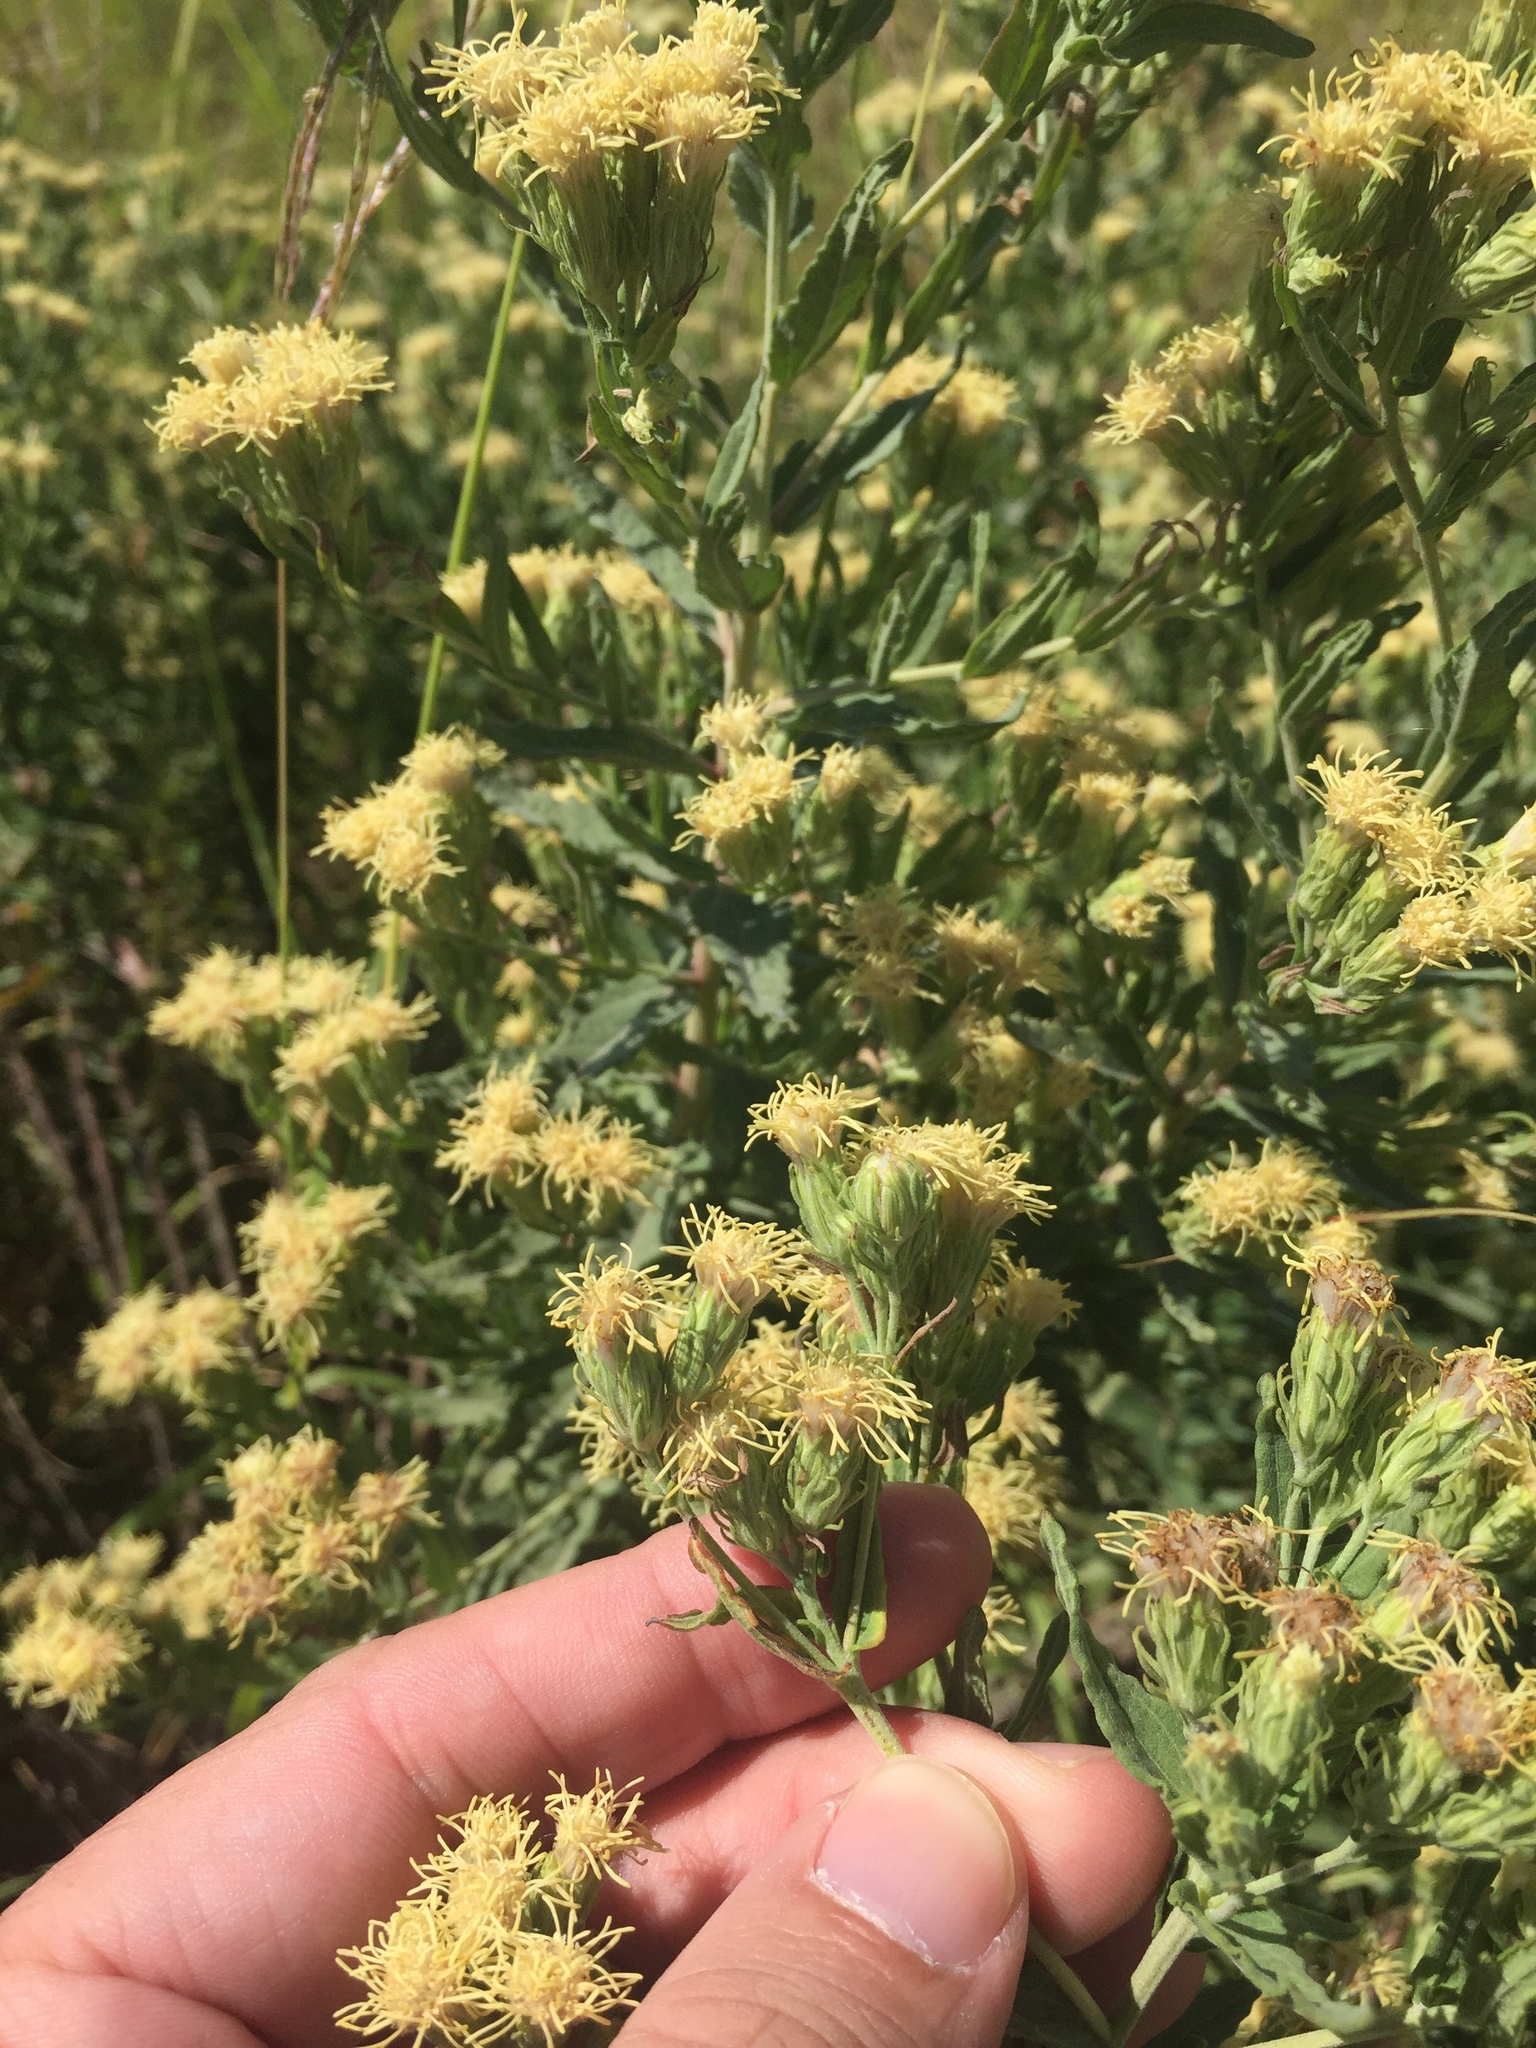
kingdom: Plantae
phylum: Tracheophyta
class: Magnoliopsida
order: Asterales
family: Asteraceae
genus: Brickellia
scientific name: Brickellia eupatorioides
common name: False boneset
